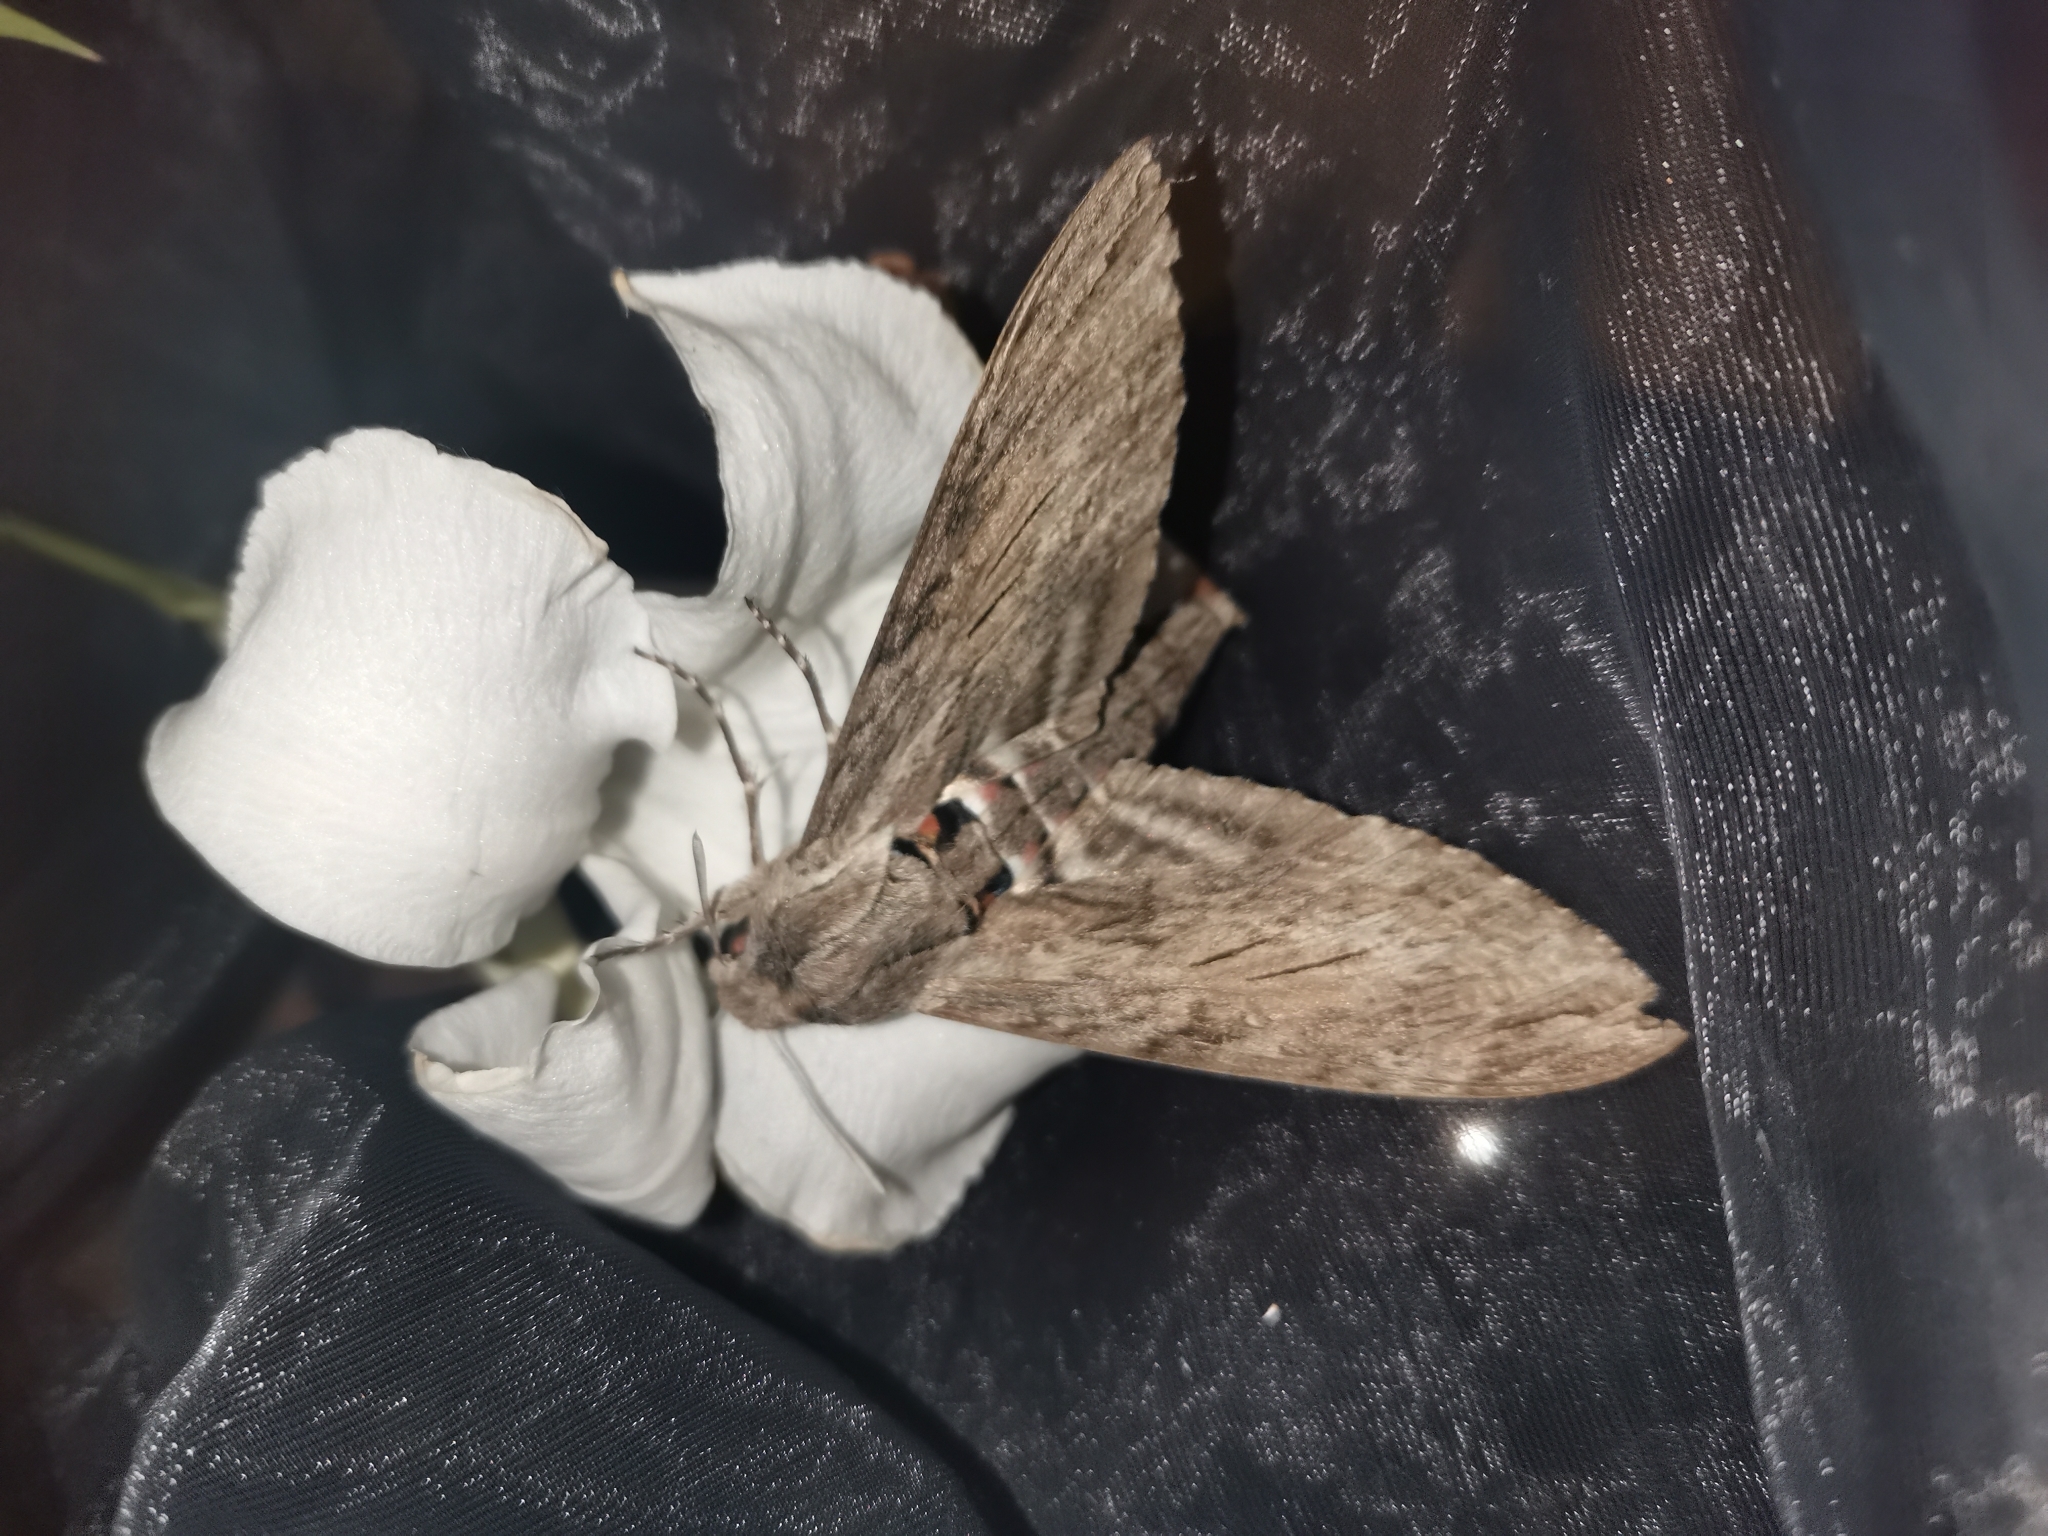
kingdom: Animalia
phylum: Arthropoda
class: Insecta
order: Lepidoptera
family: Sphingidae
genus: Agrius
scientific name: Agrius convolvuli
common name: Convolvulus hawkmoth
